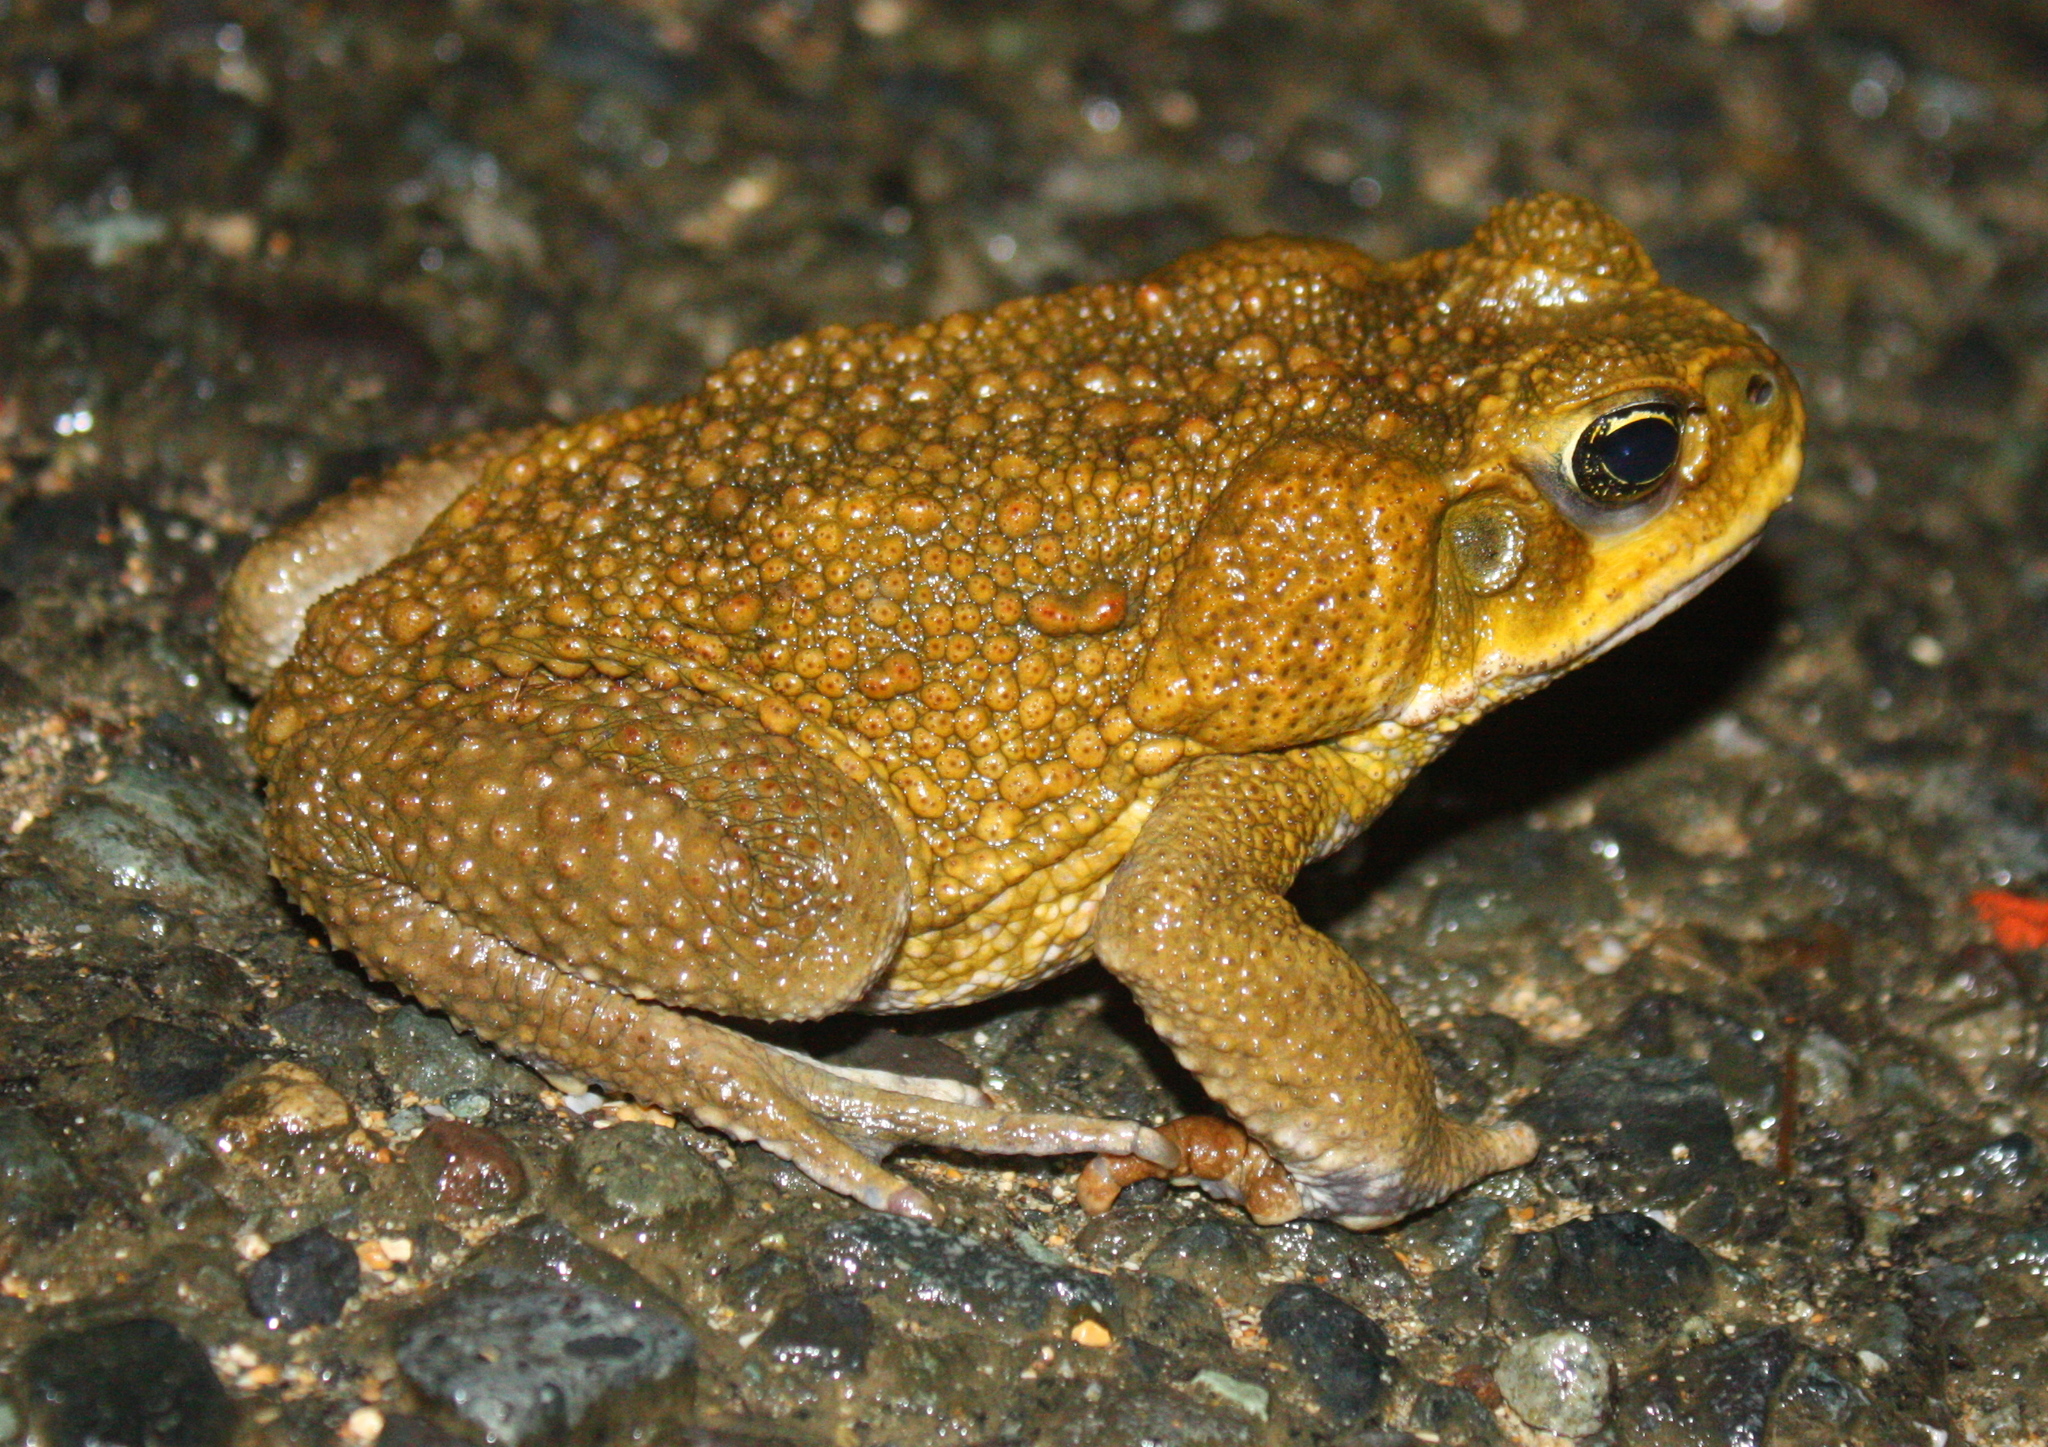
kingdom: Animalia
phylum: Chordata
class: Amphibia
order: Anura
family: Bufonidae
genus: Rhinella
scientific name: Rhinella horribilis
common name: Mesoamerican cane toad
